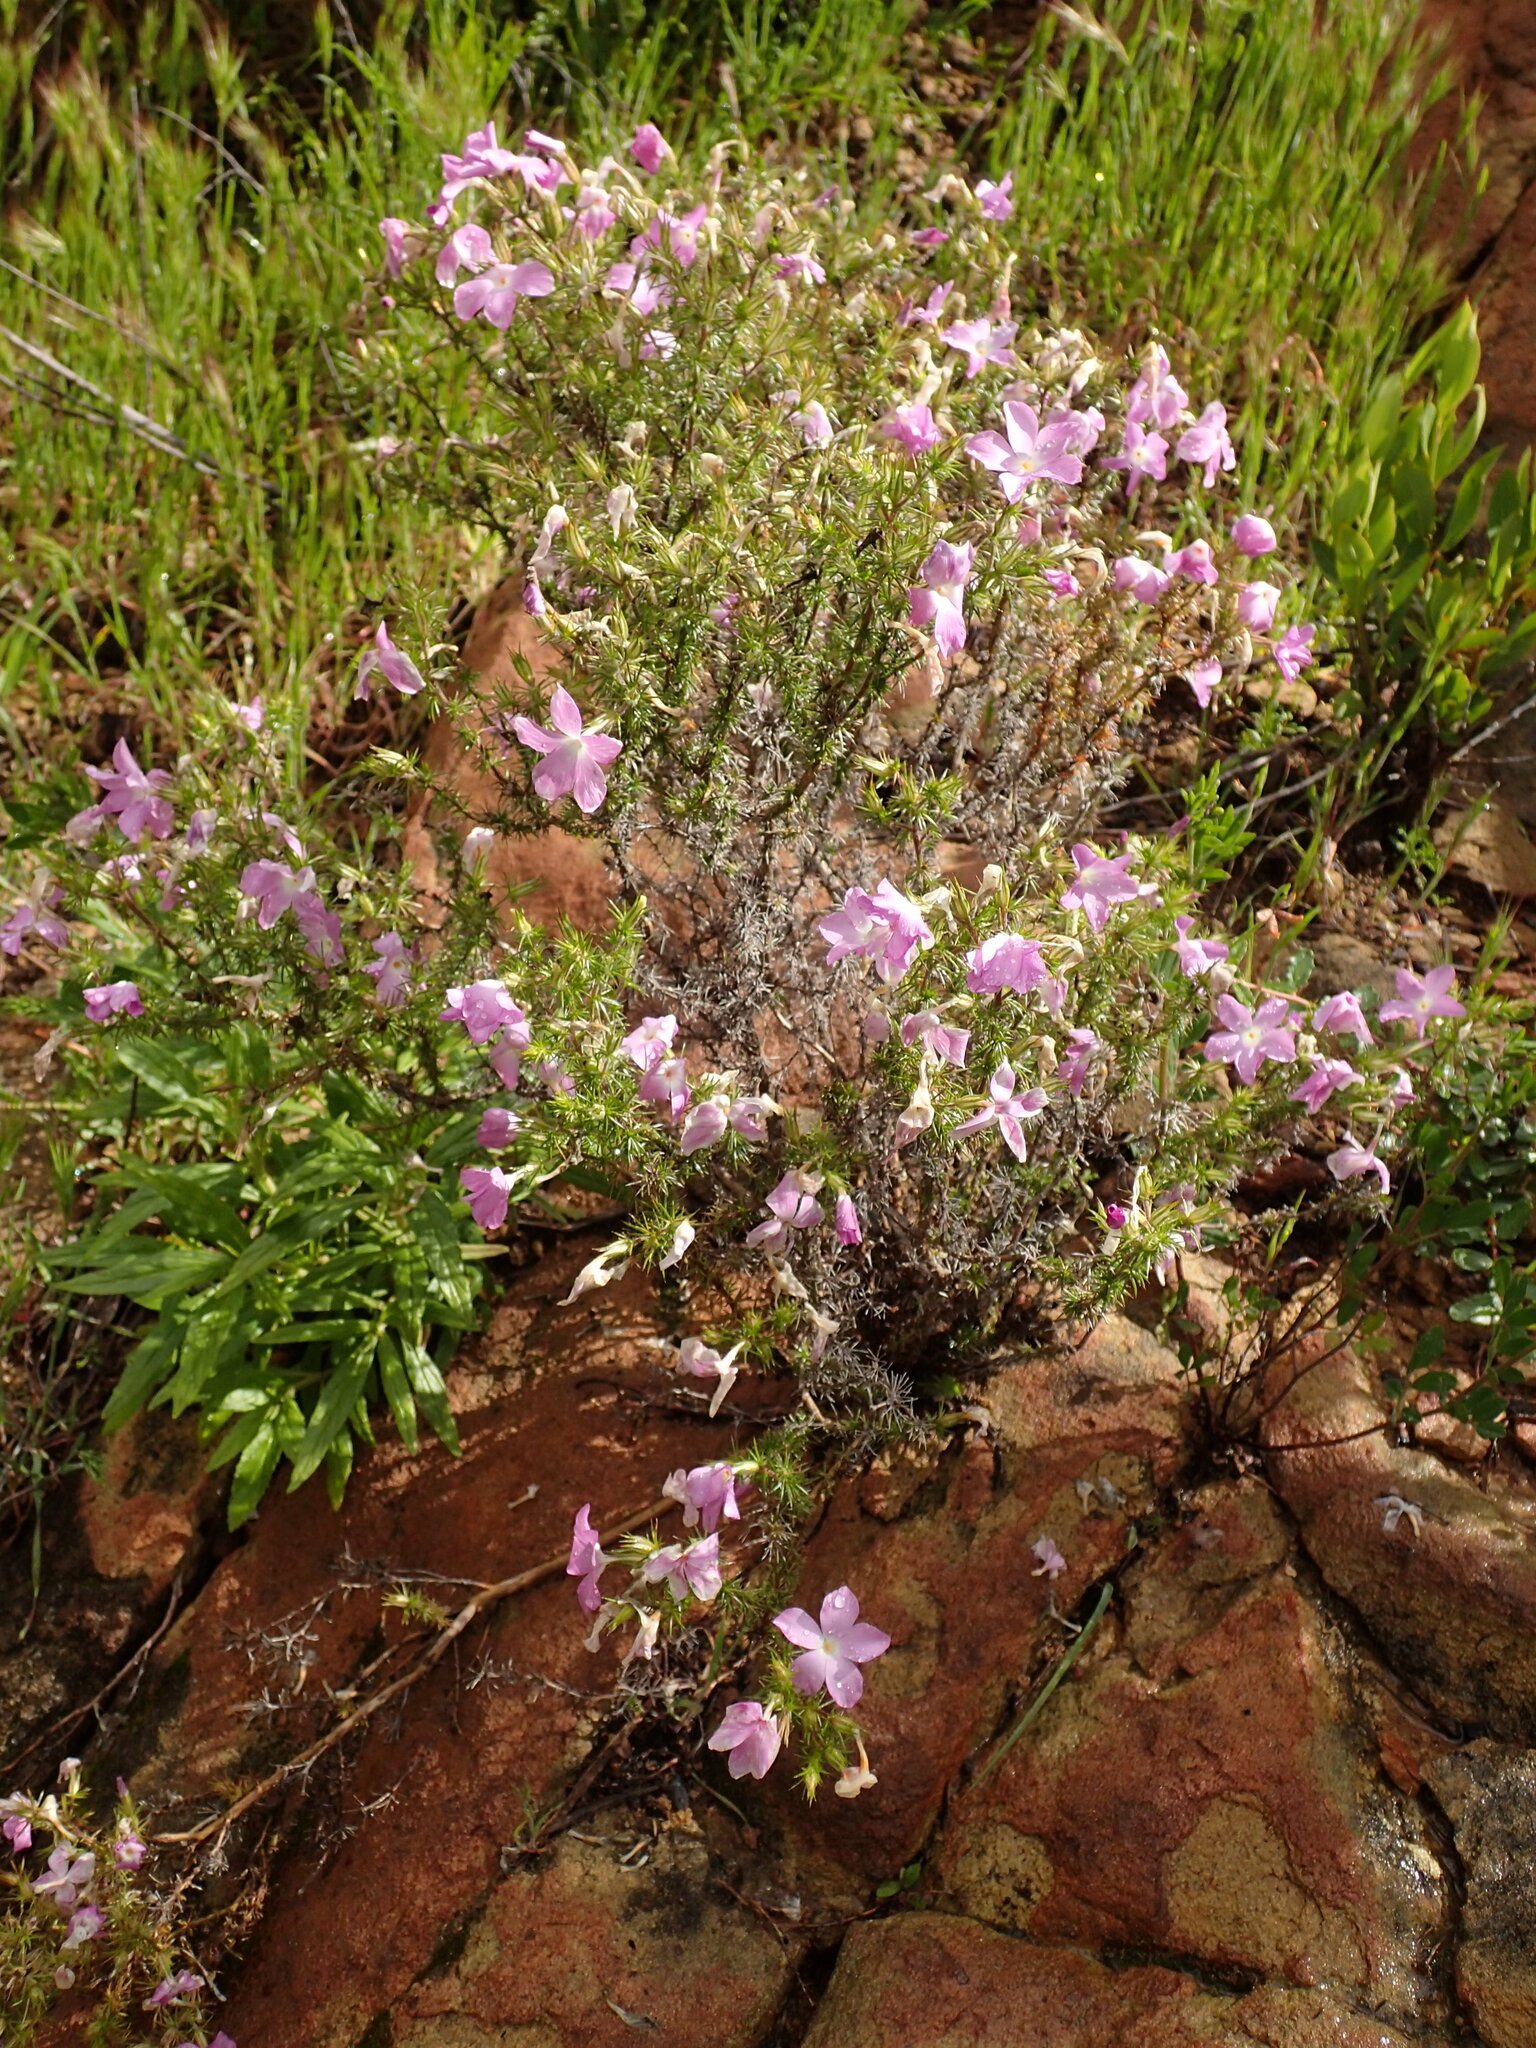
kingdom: Plantae
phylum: Tracheophyta
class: Magnoliopsida
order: Ericales
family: Polemoniaceae
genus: Linanthus
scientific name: Linanthus californicus
